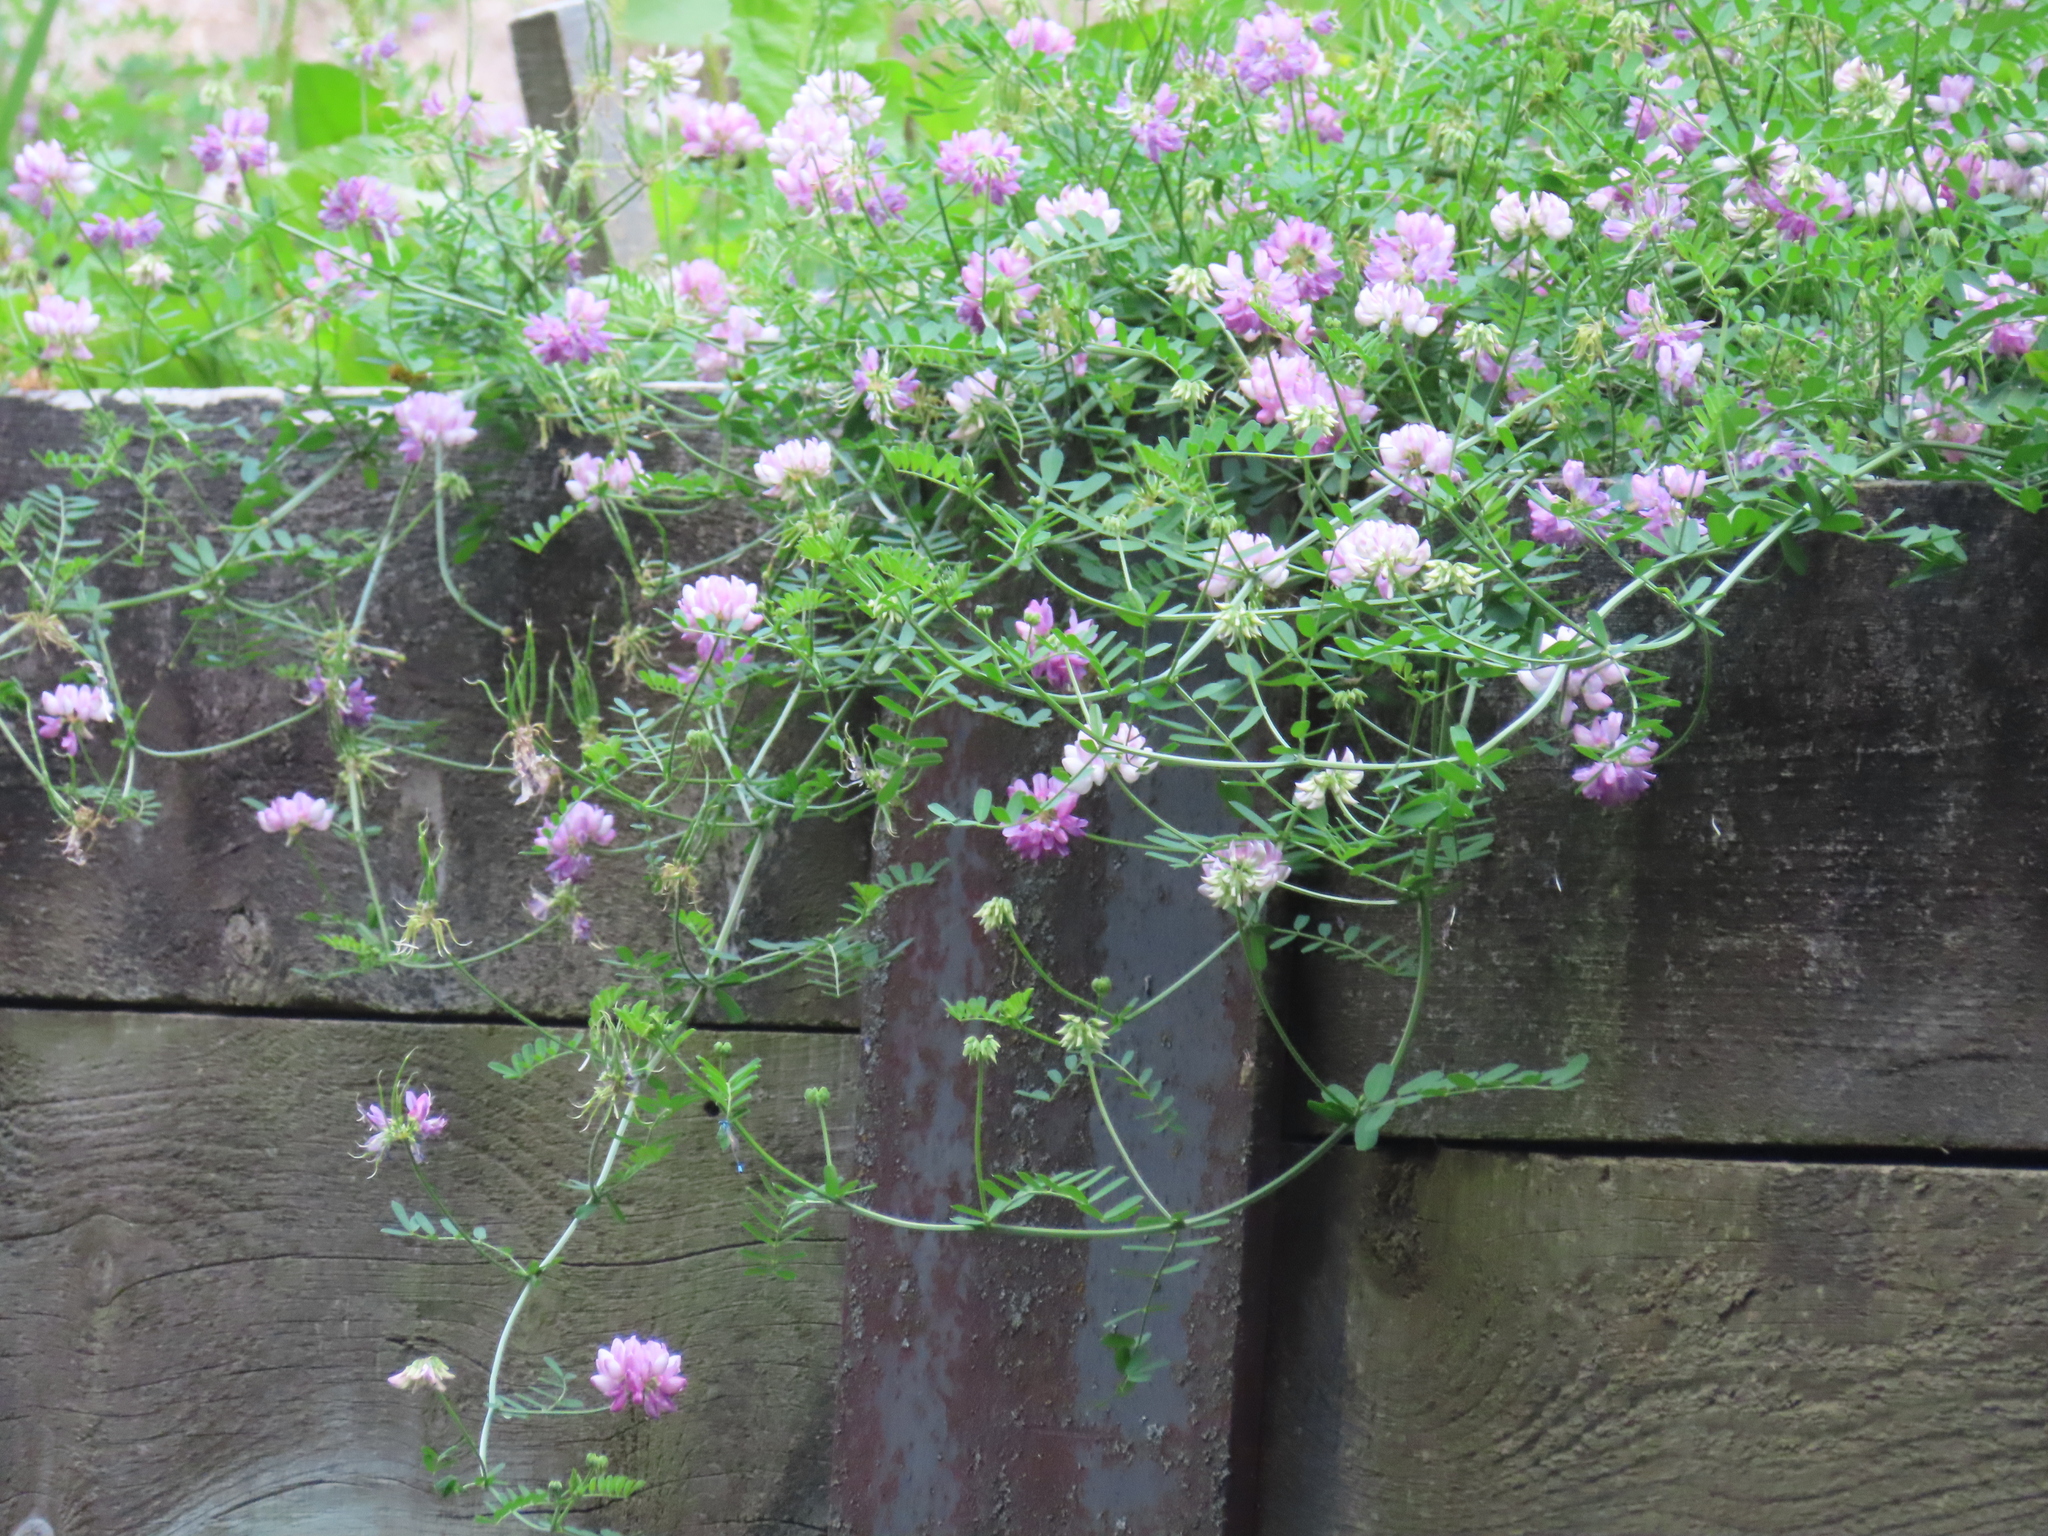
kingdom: Plantae
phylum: Tracheophyta
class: Magnoliopsida
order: Fabales
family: Fabaceae
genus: Coronilla
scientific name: Coronilla varia
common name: Crownvetch
